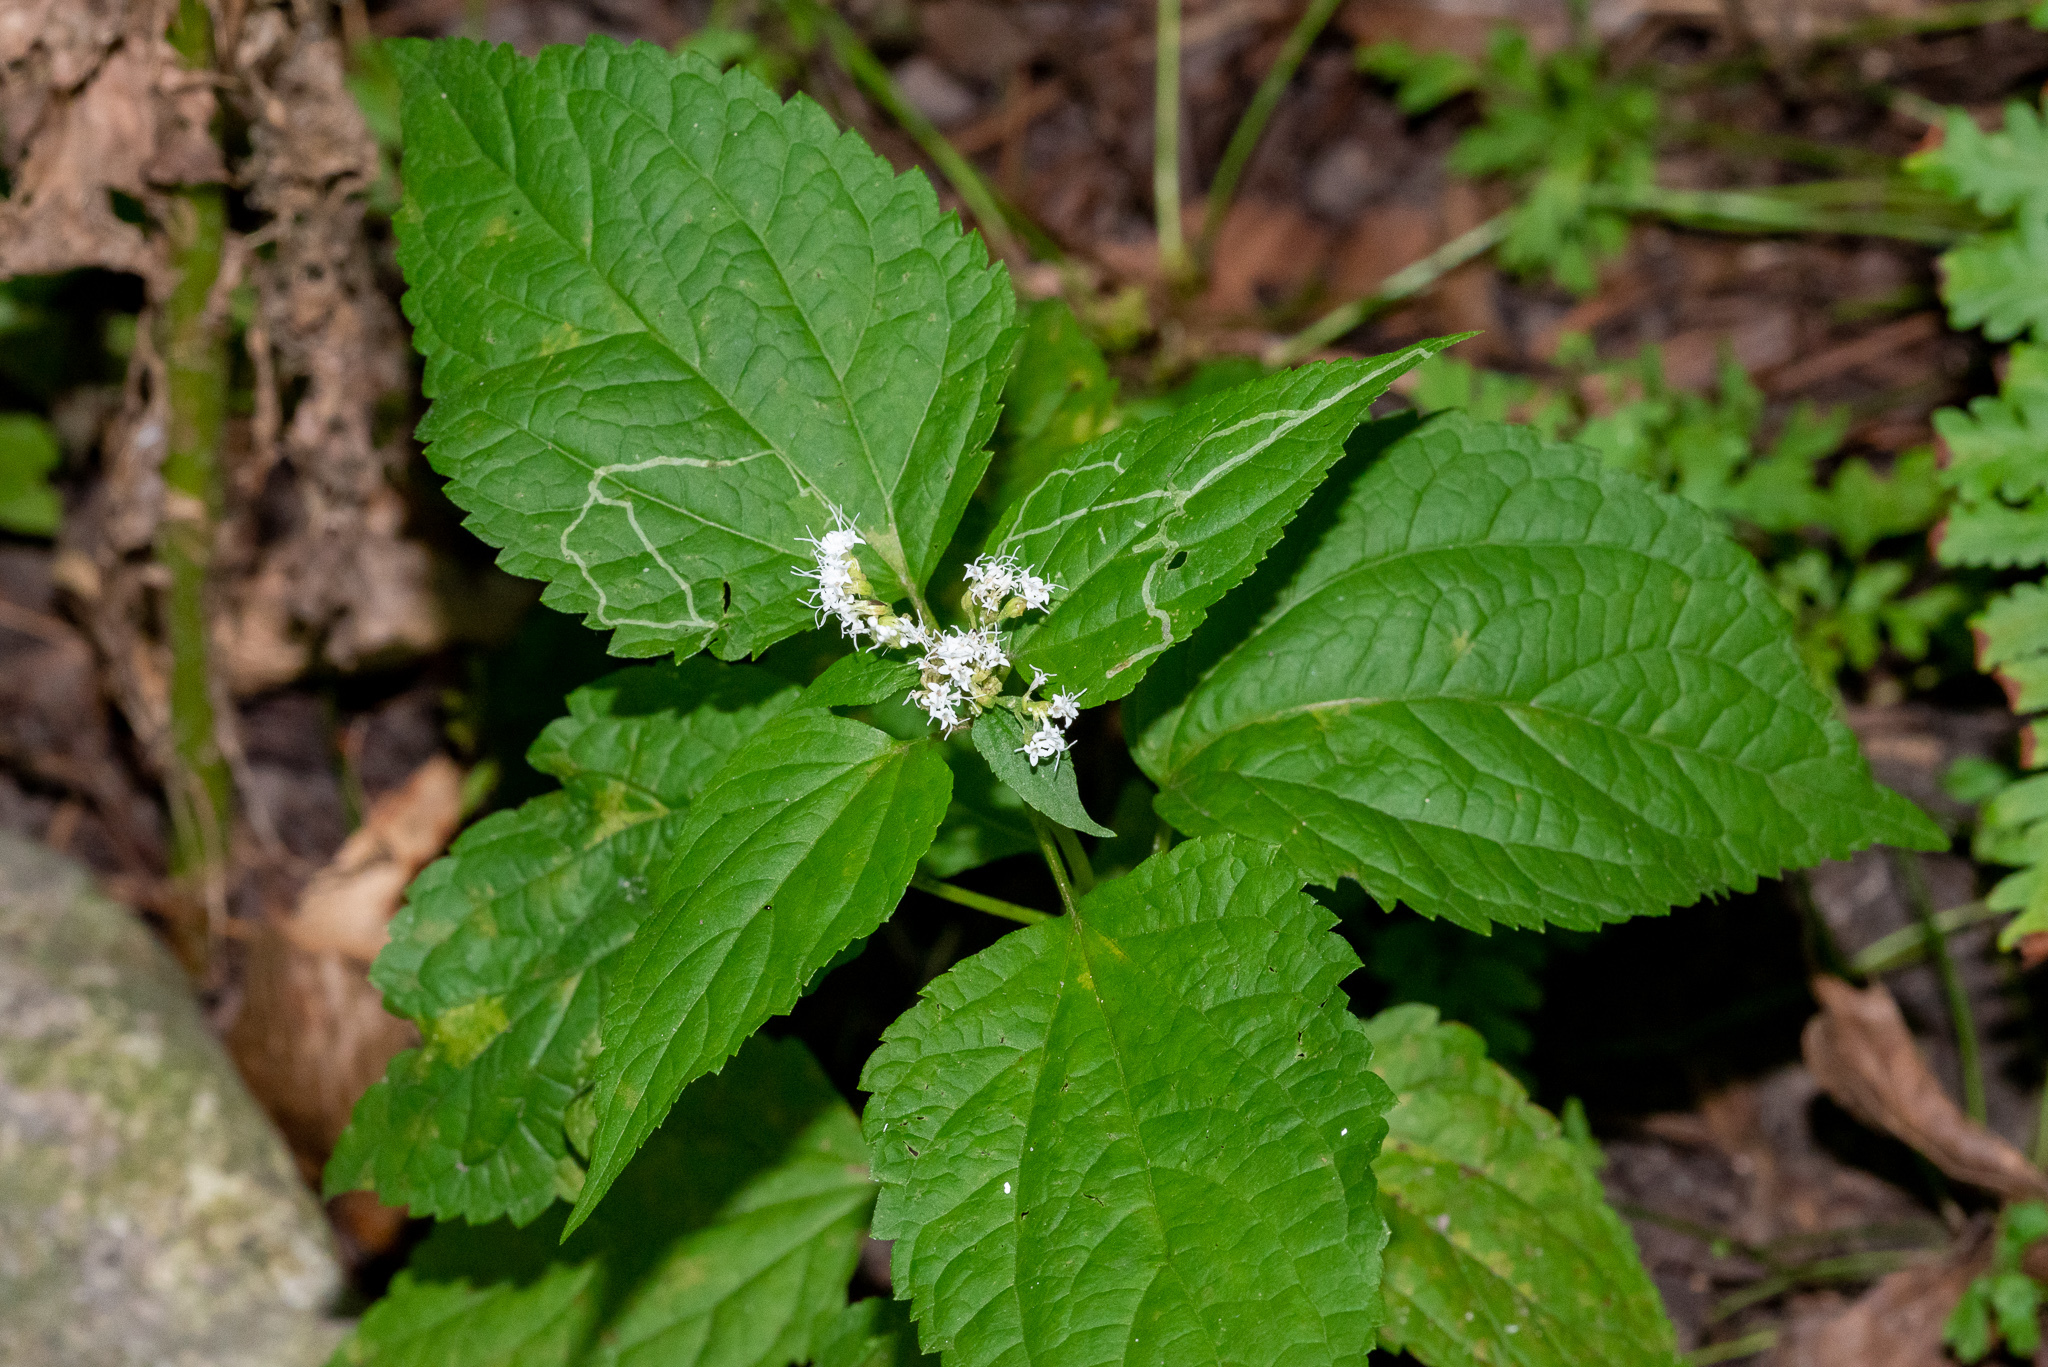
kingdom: Plantae
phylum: Tracheophyta
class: Magnoliopsida
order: Asterales
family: Asteraceae
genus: Ageratina
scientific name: Ageratina altissima
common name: White snakeroot
